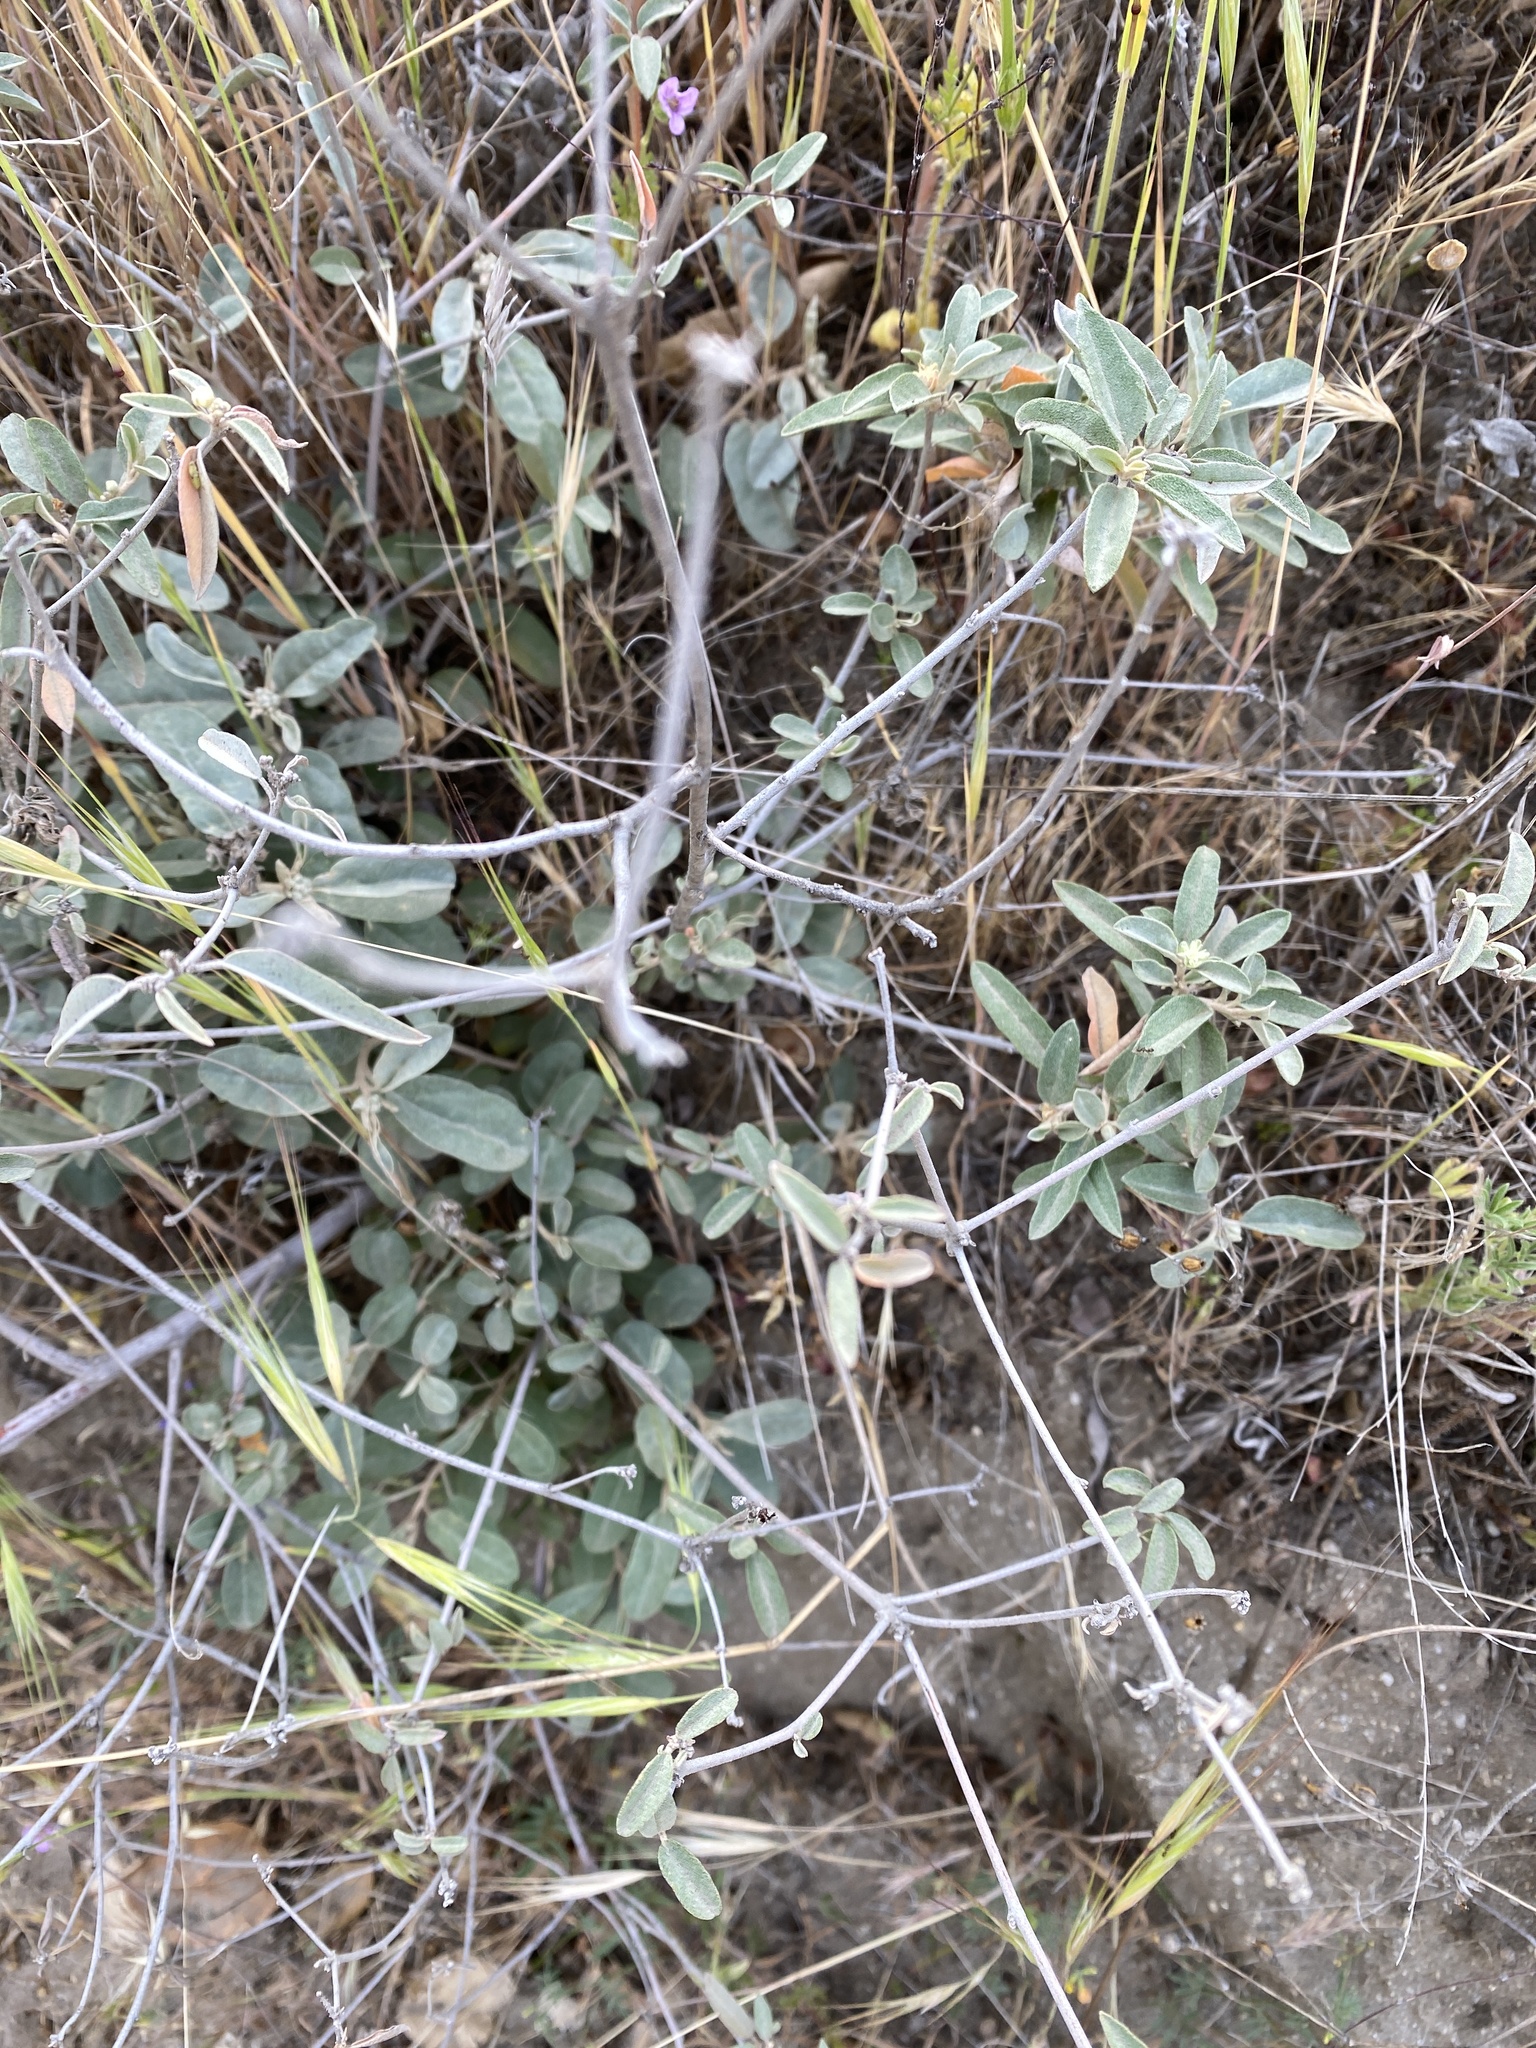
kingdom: Plantae
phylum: Tracheophyta
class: Magnoliopsida
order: Malpighiales
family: Euphorbiaceae
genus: Croton
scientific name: Croton californicus
